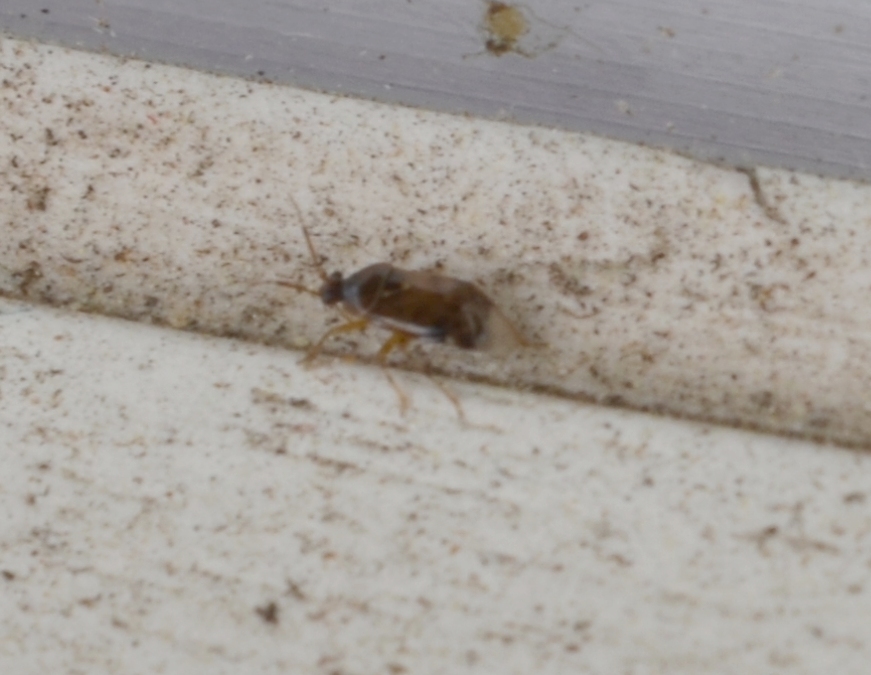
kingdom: Animalia
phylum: Arthropoda
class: Insecta
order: Hemiptera
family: Miridae
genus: Deraeocoris
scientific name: Deraeocoris lutescens
